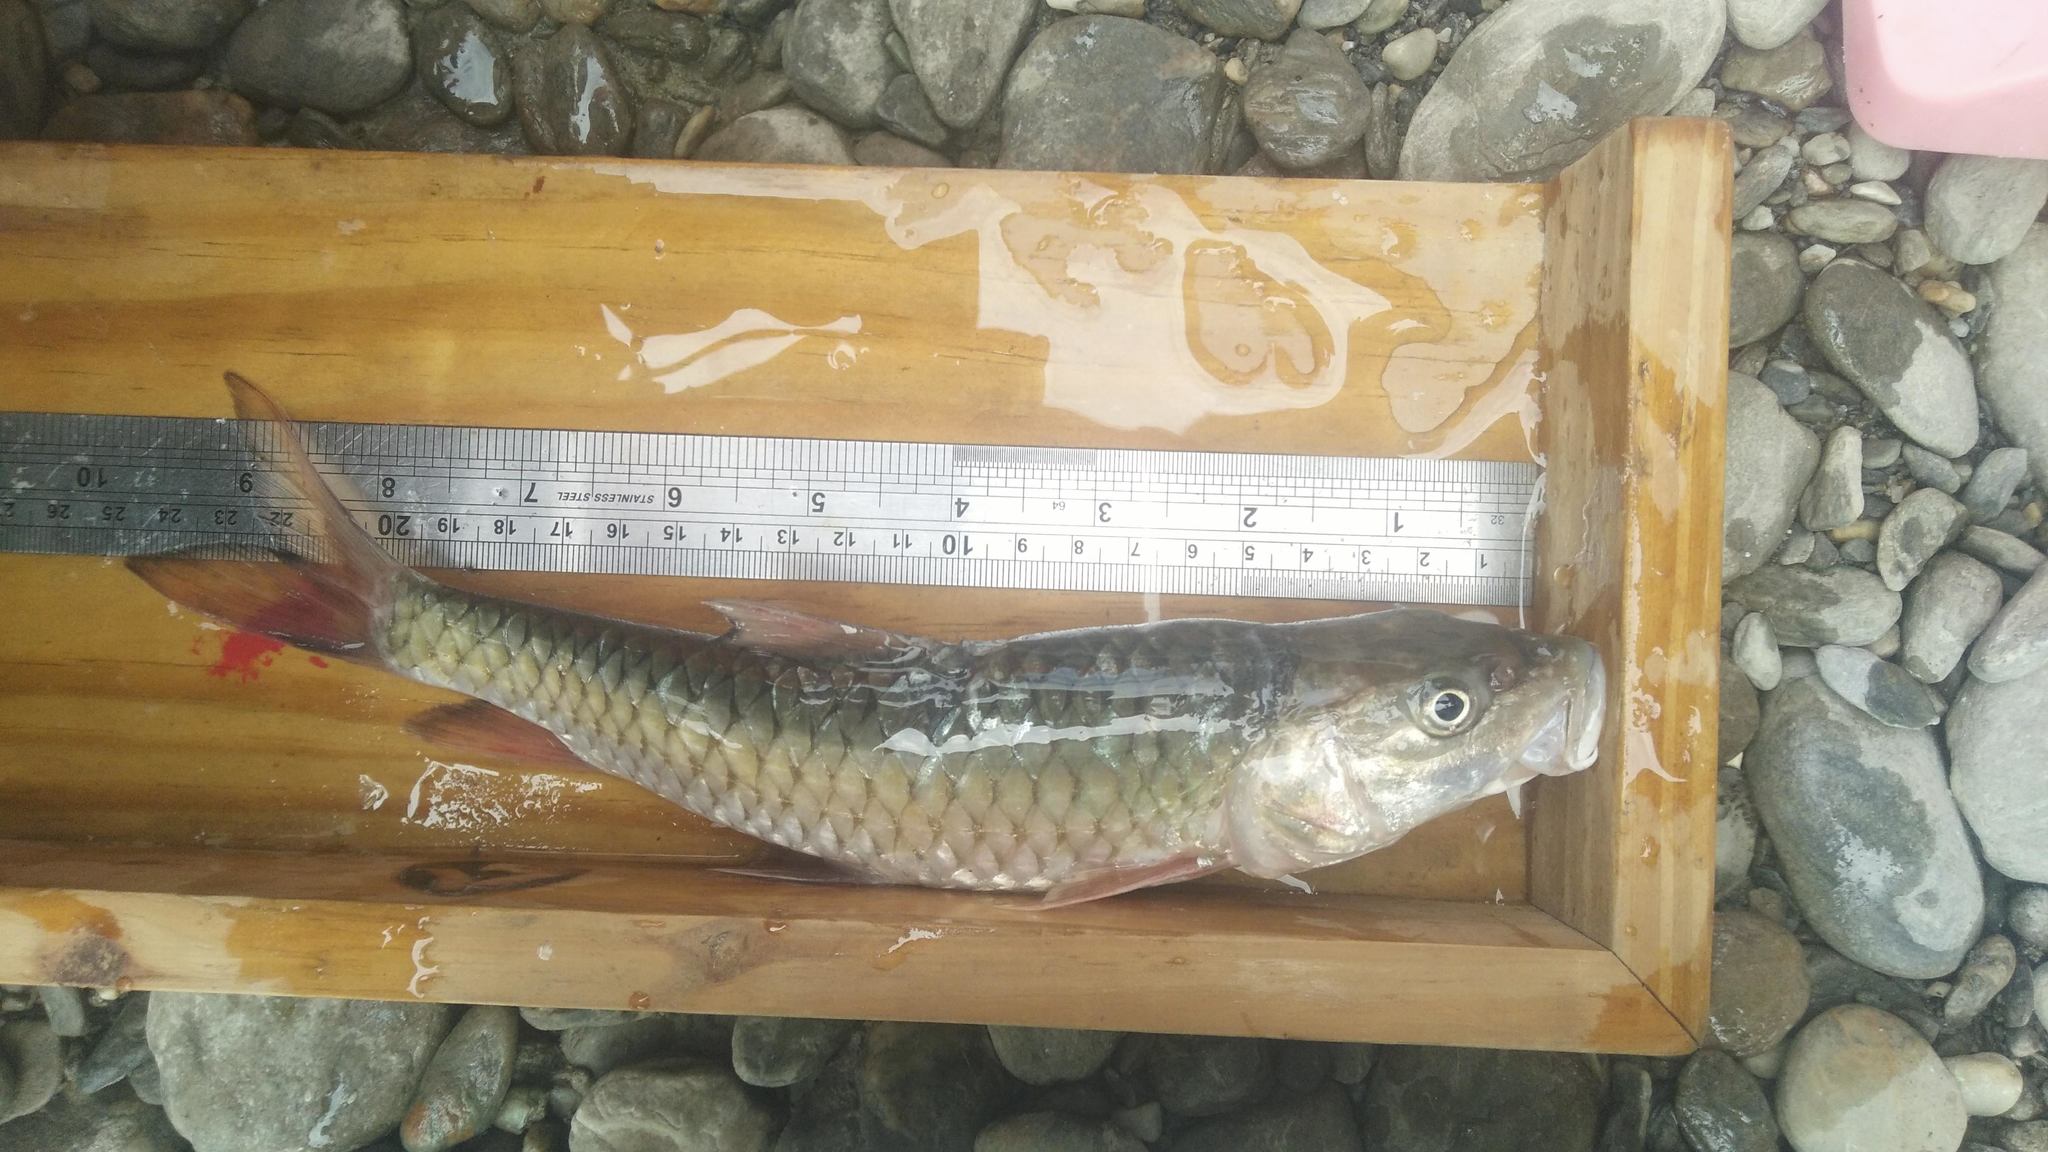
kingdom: Animalia
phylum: Chordata
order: Cypriniformes
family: Cyprinidae
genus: Spinibarbus
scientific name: Spinibarbus hollandi
